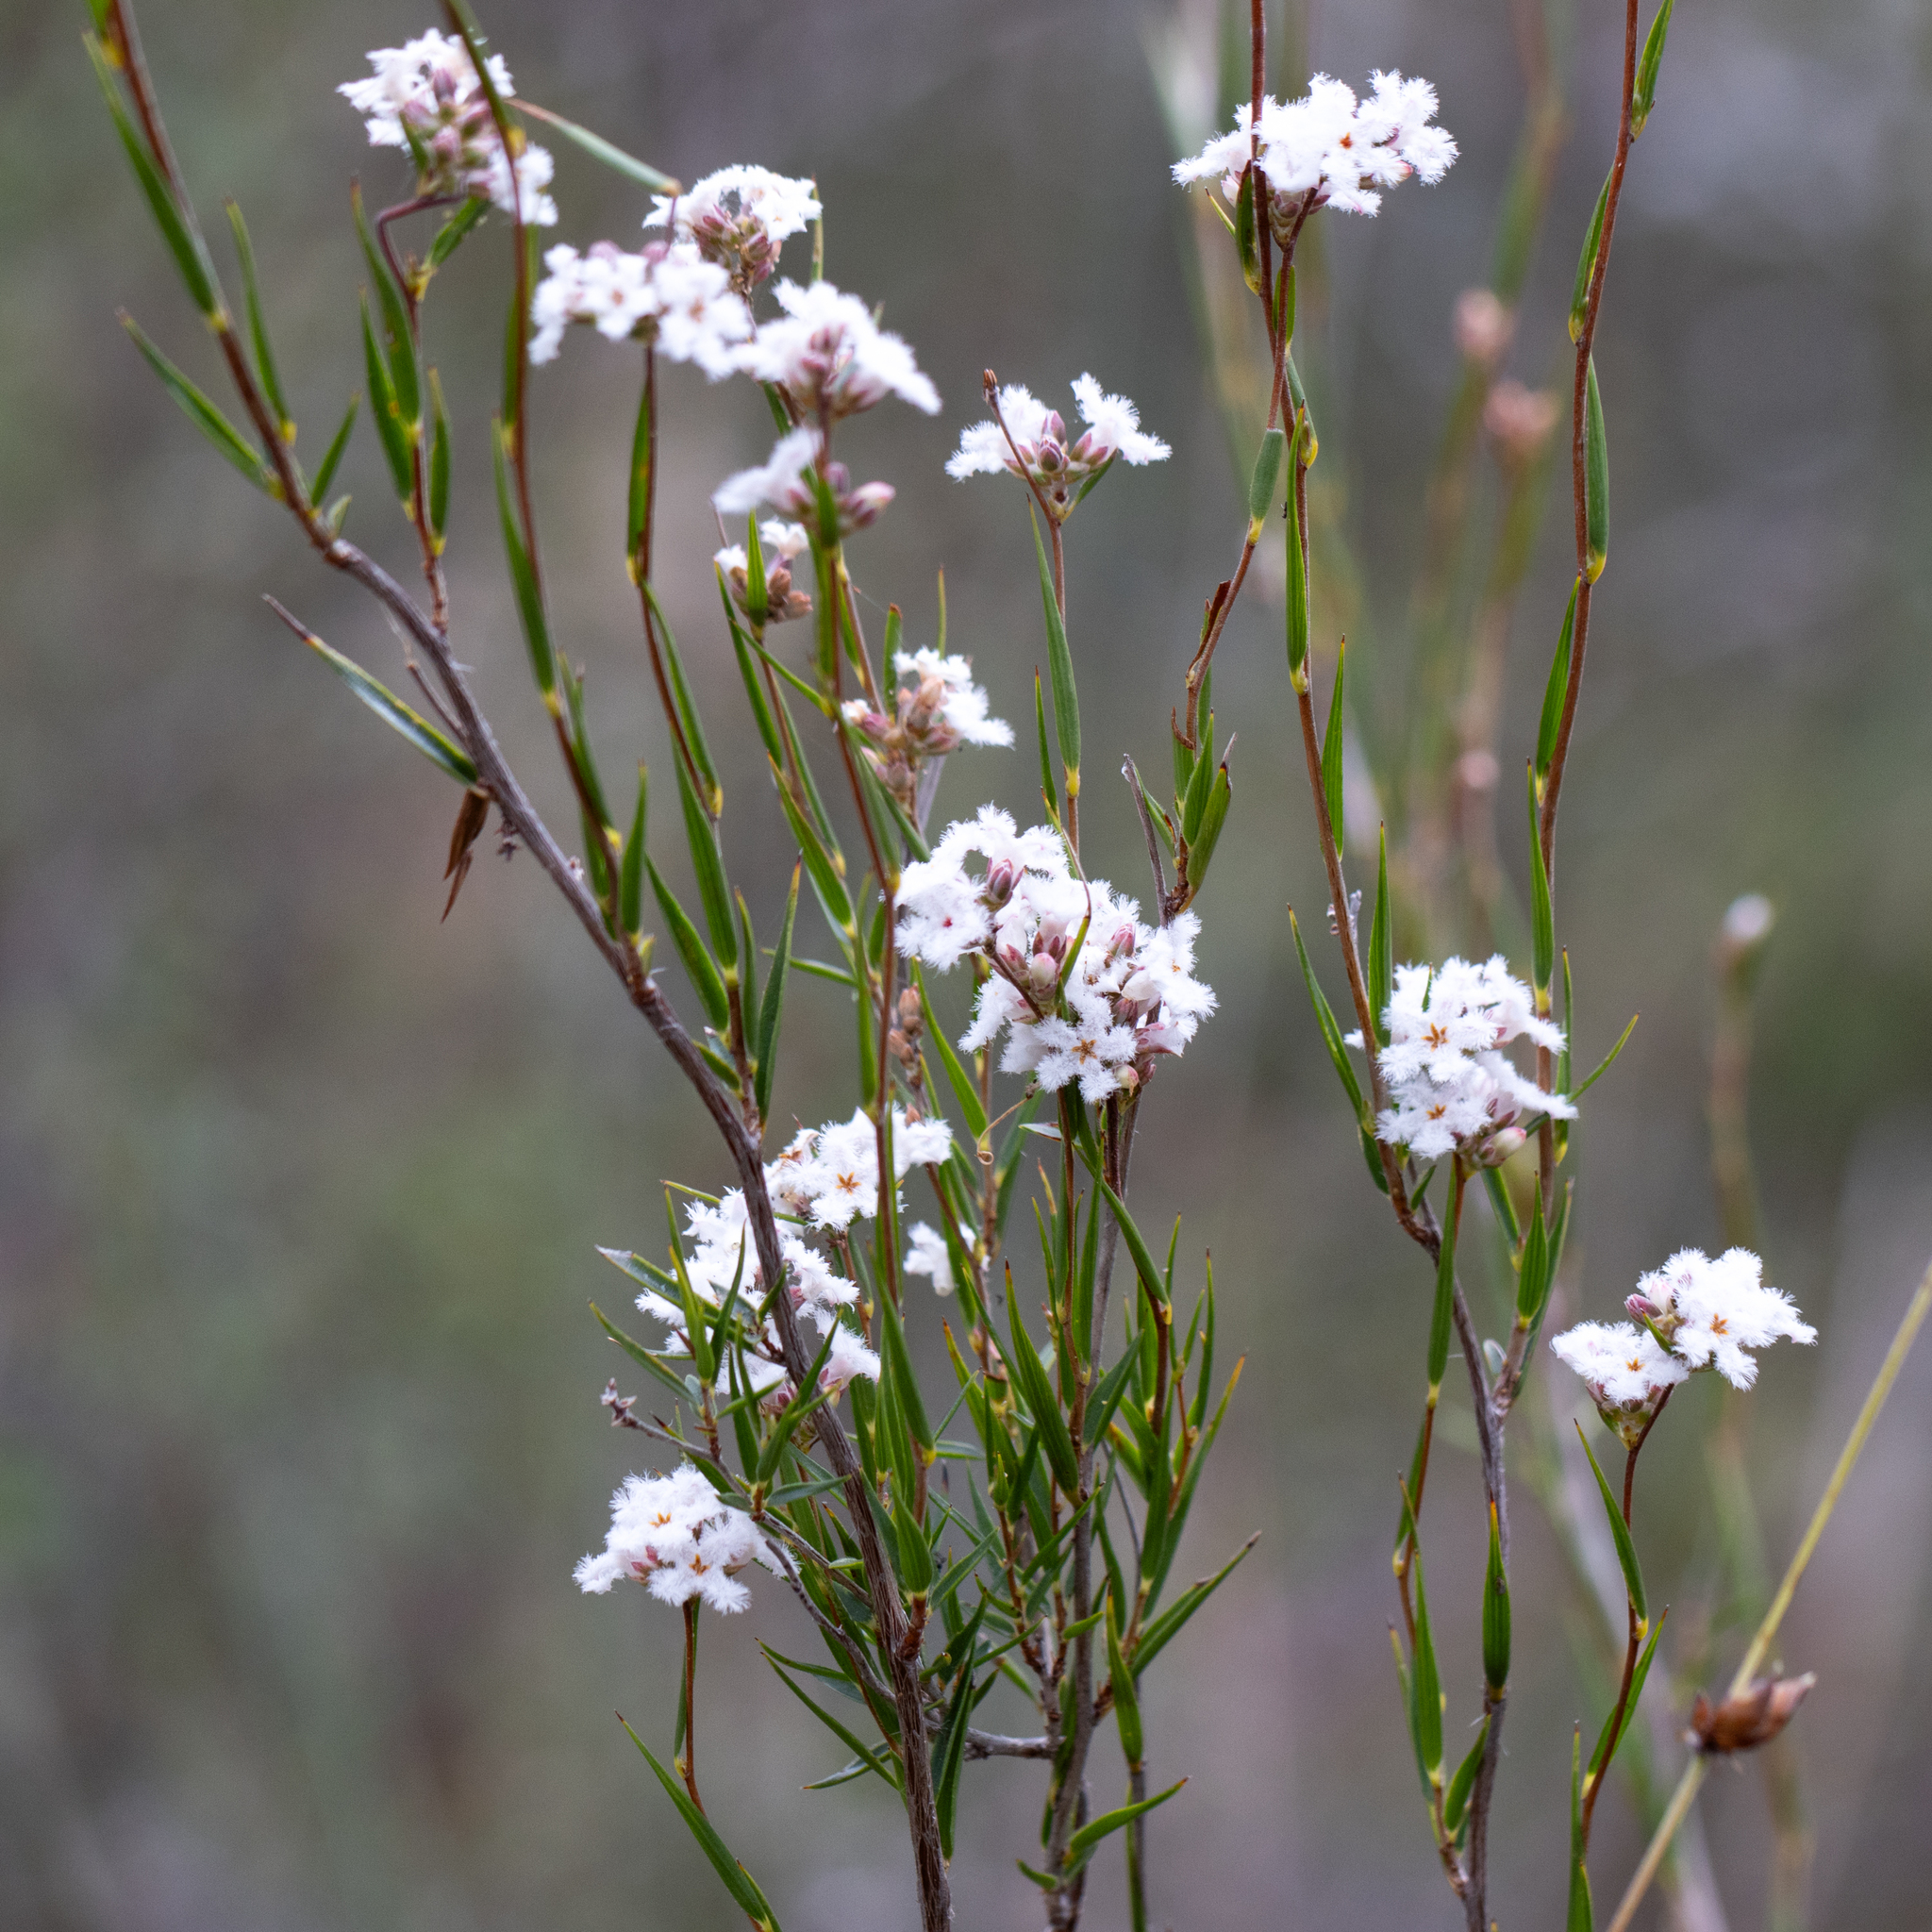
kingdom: Plantae
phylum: Tracheophyta
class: Magnoliopsida
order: Ericales
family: Ericaceae
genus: Leucopogon
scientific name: Leucopogon virgatus
